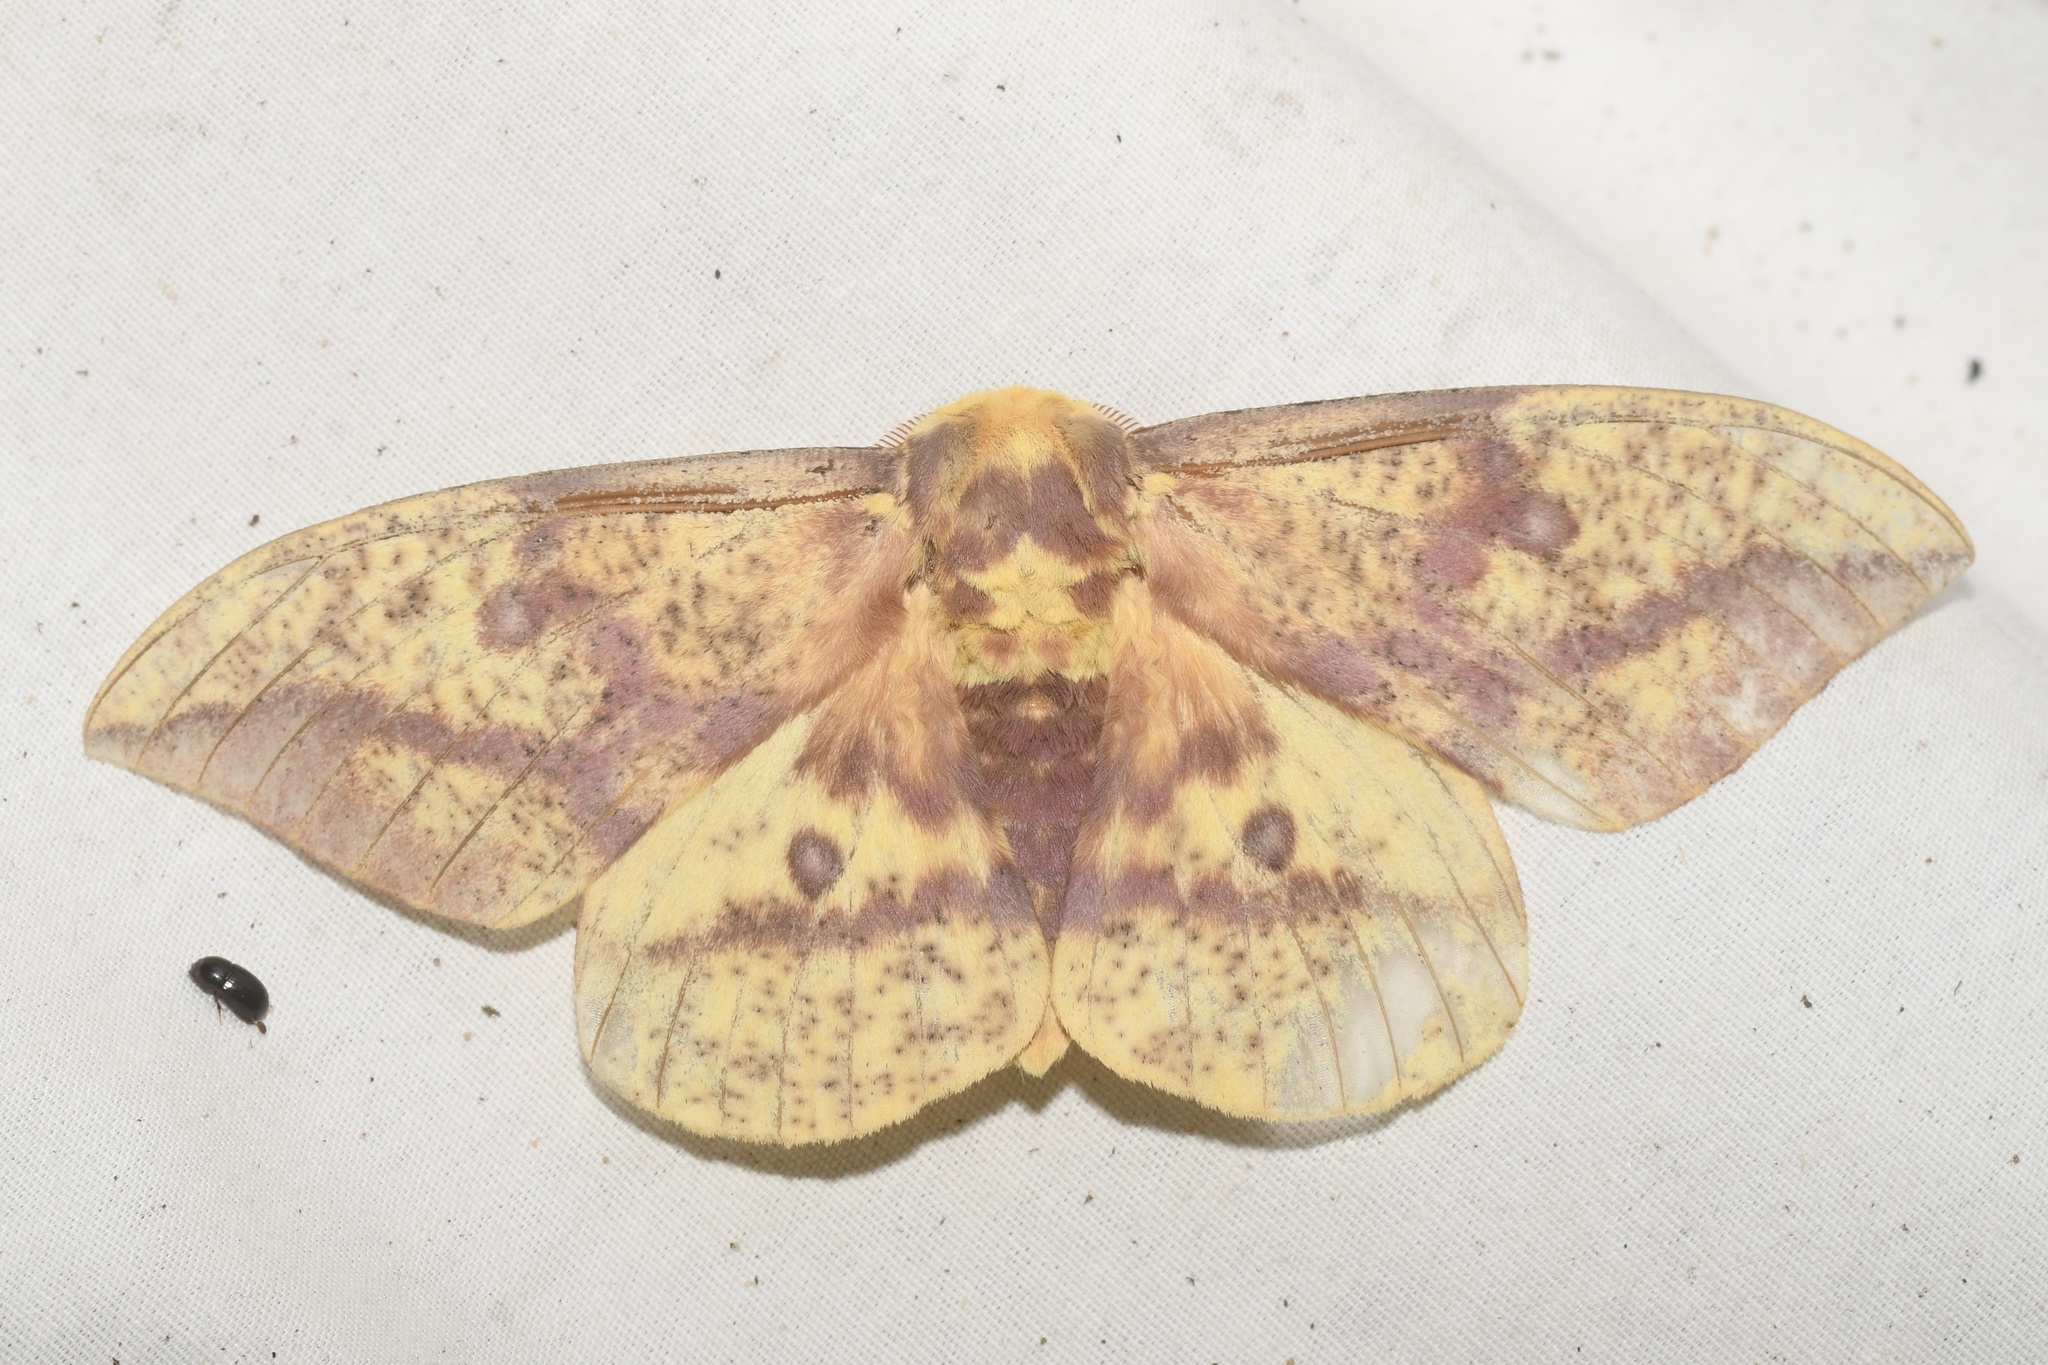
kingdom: Animalia
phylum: Arthropoda
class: Insecta
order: Lepidoptera
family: Saturniidae
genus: Eacles
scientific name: Eacles
